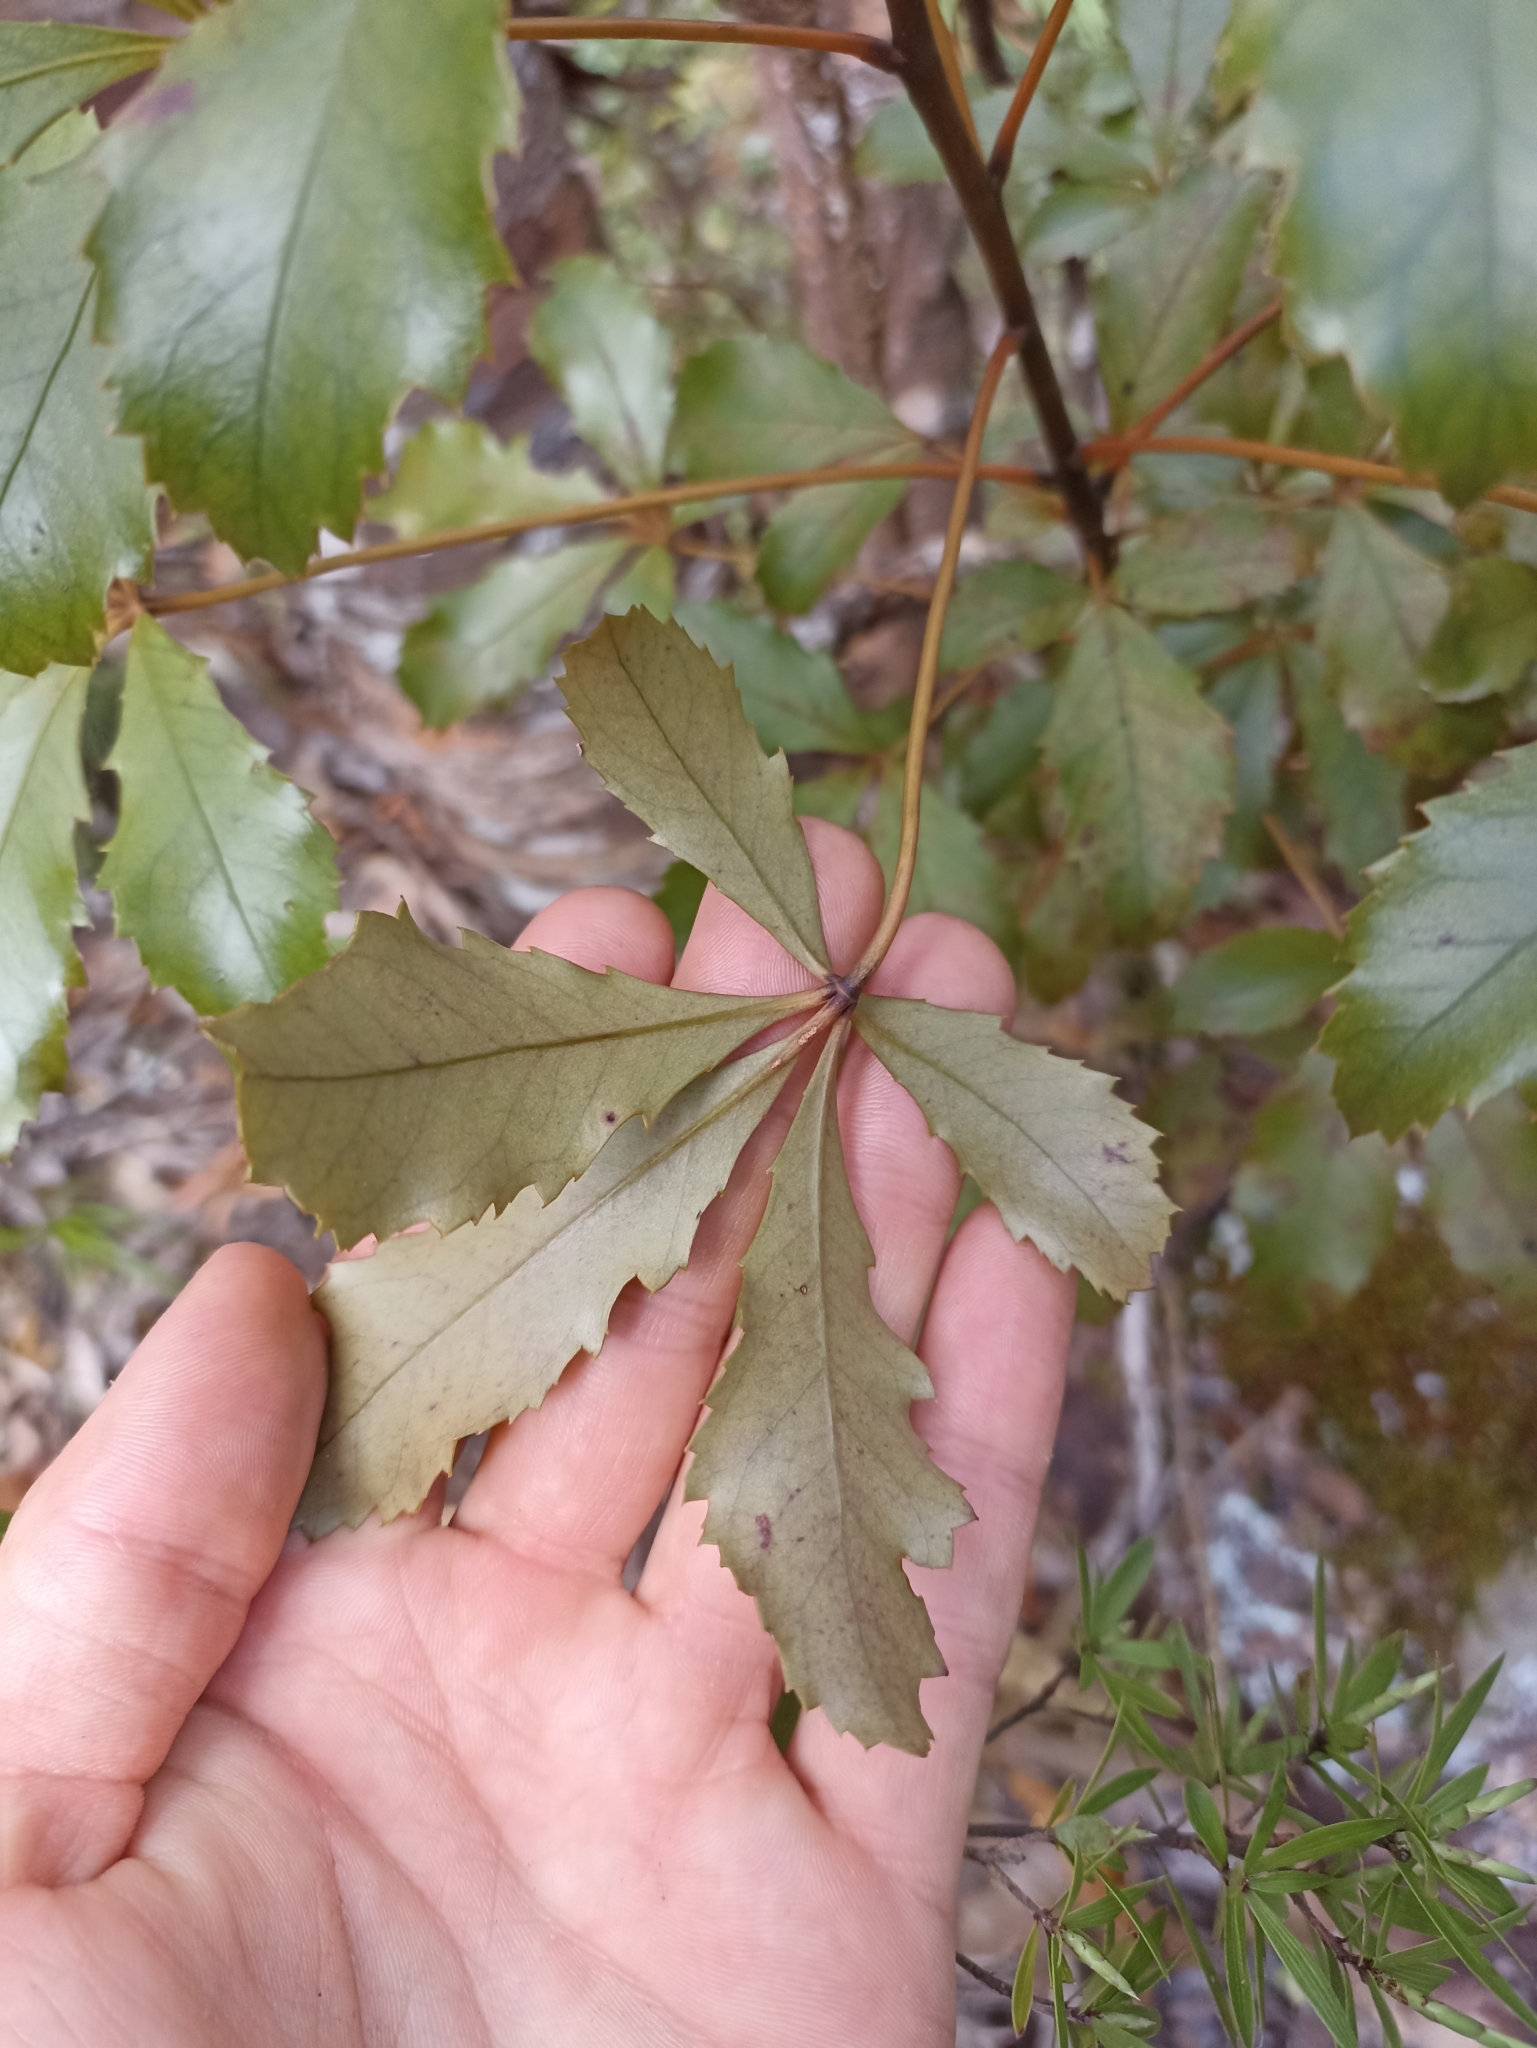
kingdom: Plantae
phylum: Tracheophyta
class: Magnoliopsida
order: Apiales
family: Araliaceae
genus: Pseudopanax
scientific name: Pseudopanax discolor
